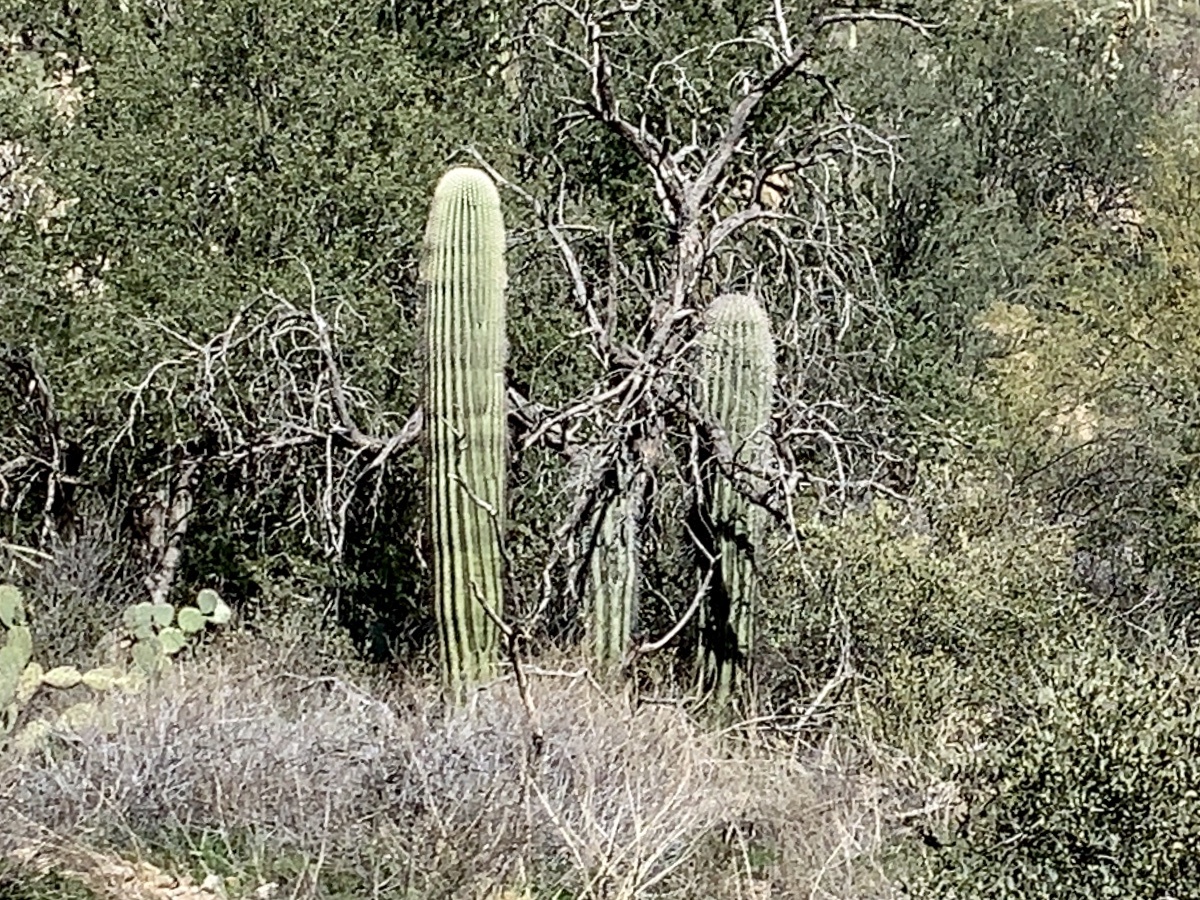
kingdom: Plantae
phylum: Tracheophyta
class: Magnoliopsida
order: Caryophyllales
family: Cactaceae
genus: Carnegiea
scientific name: Carnegiea gigantea
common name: Saguaro
